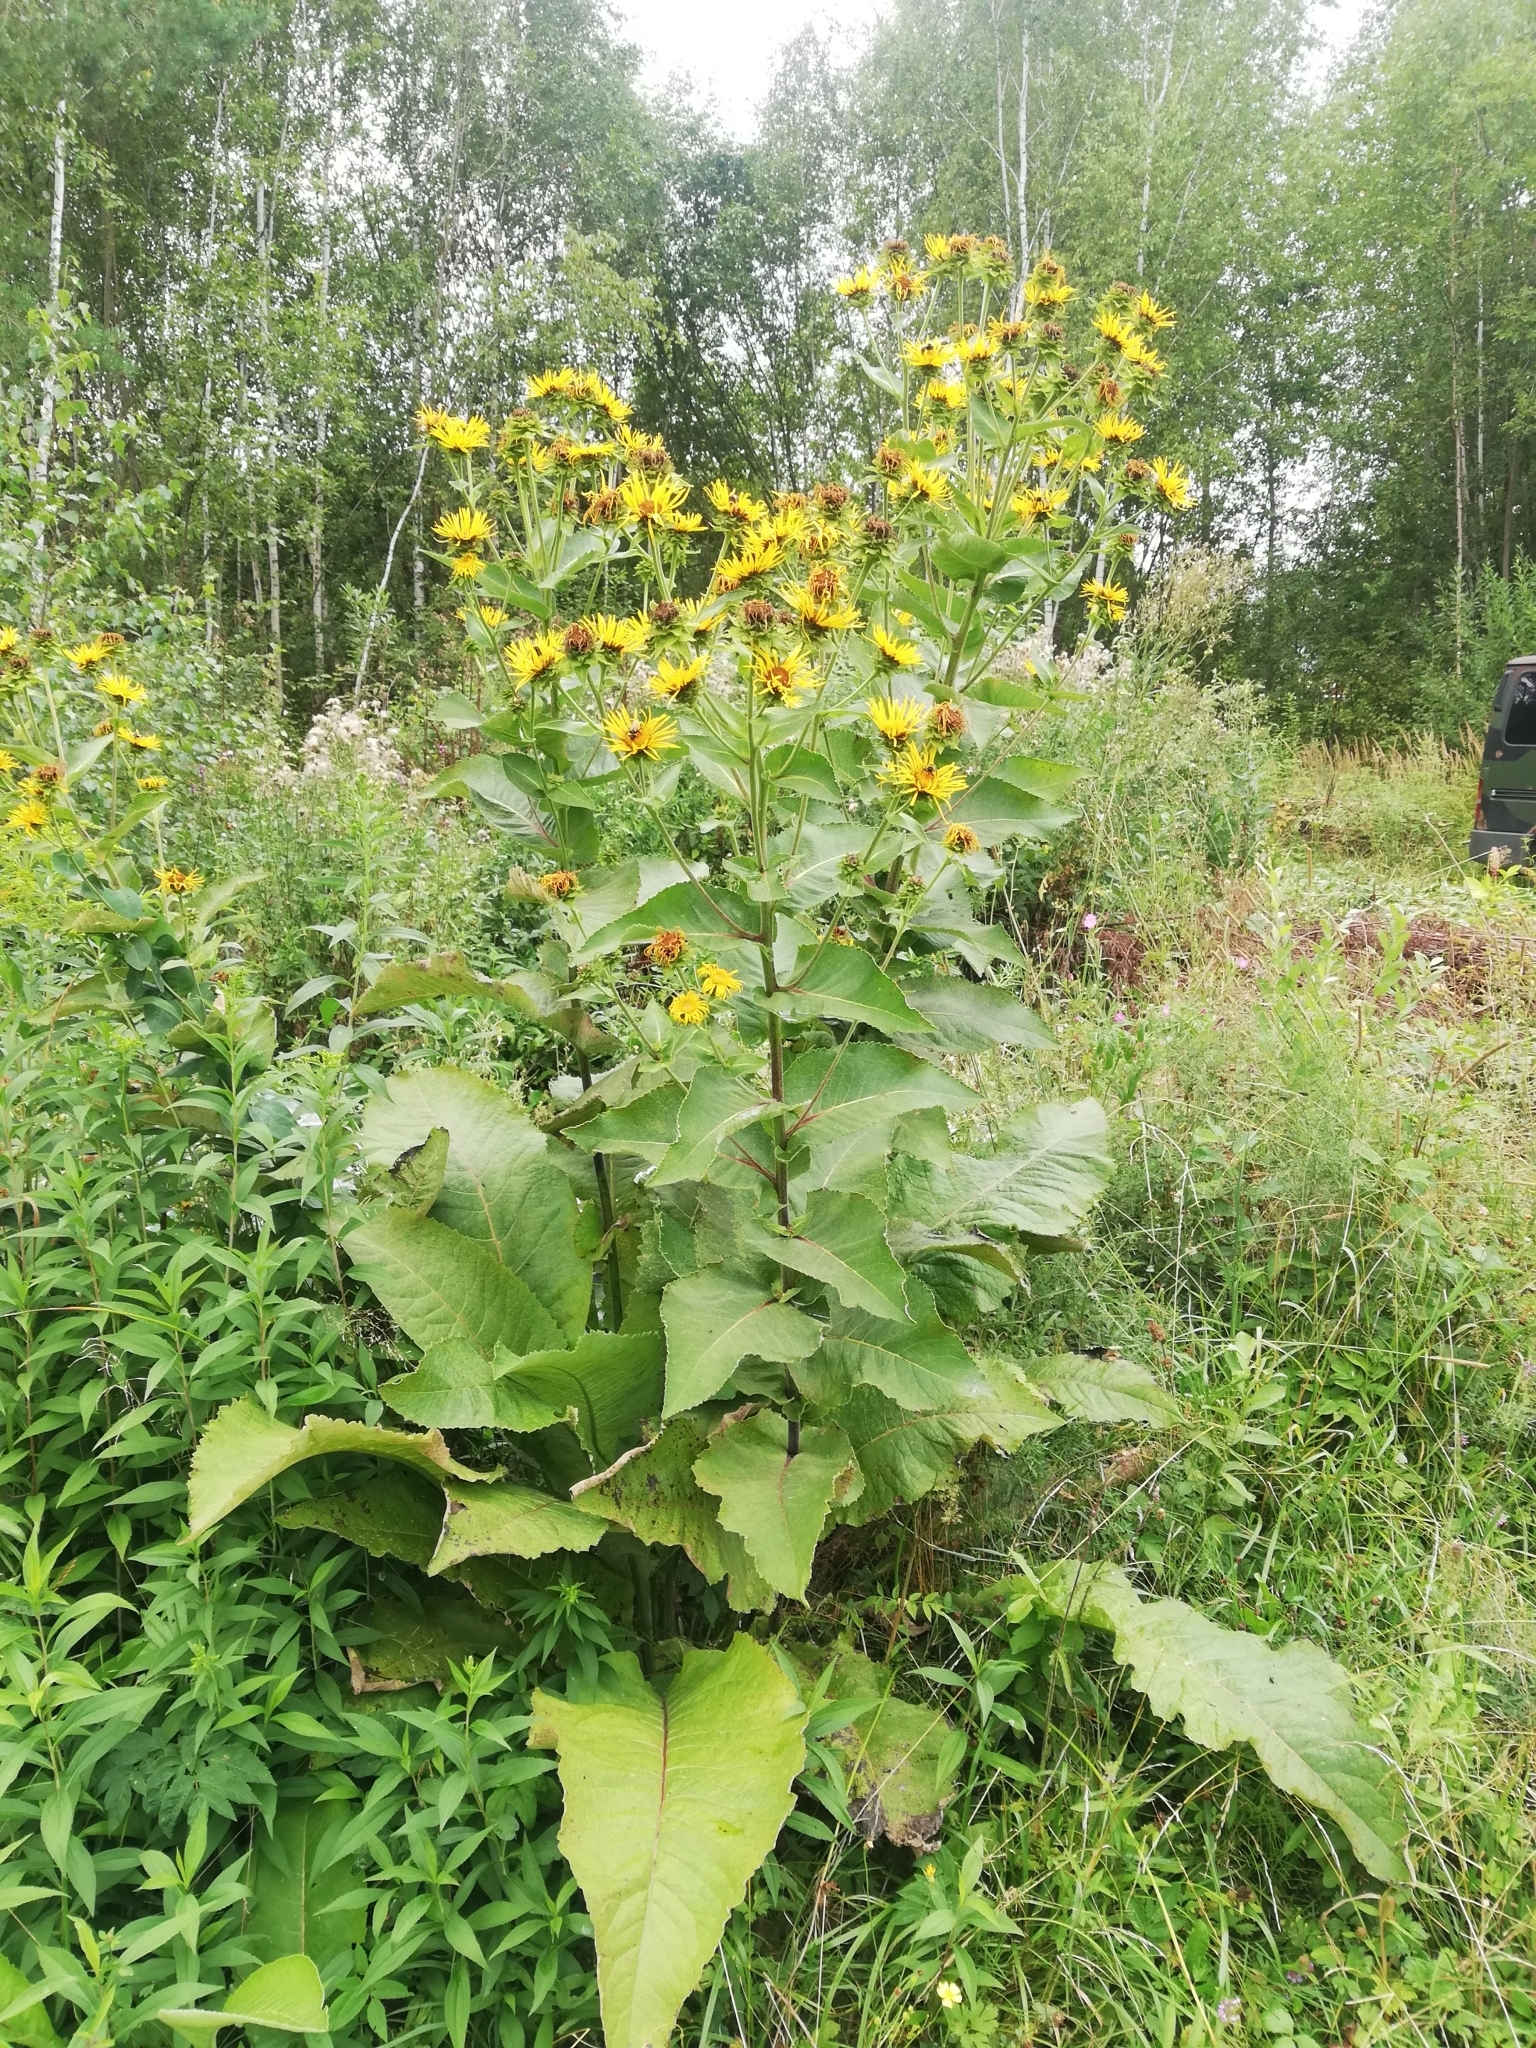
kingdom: Plantae
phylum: Tracheophyta
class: Magnoliopsida
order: Asterales
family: Asteraceae
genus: Inula
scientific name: Inula helenium
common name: Elecampane
